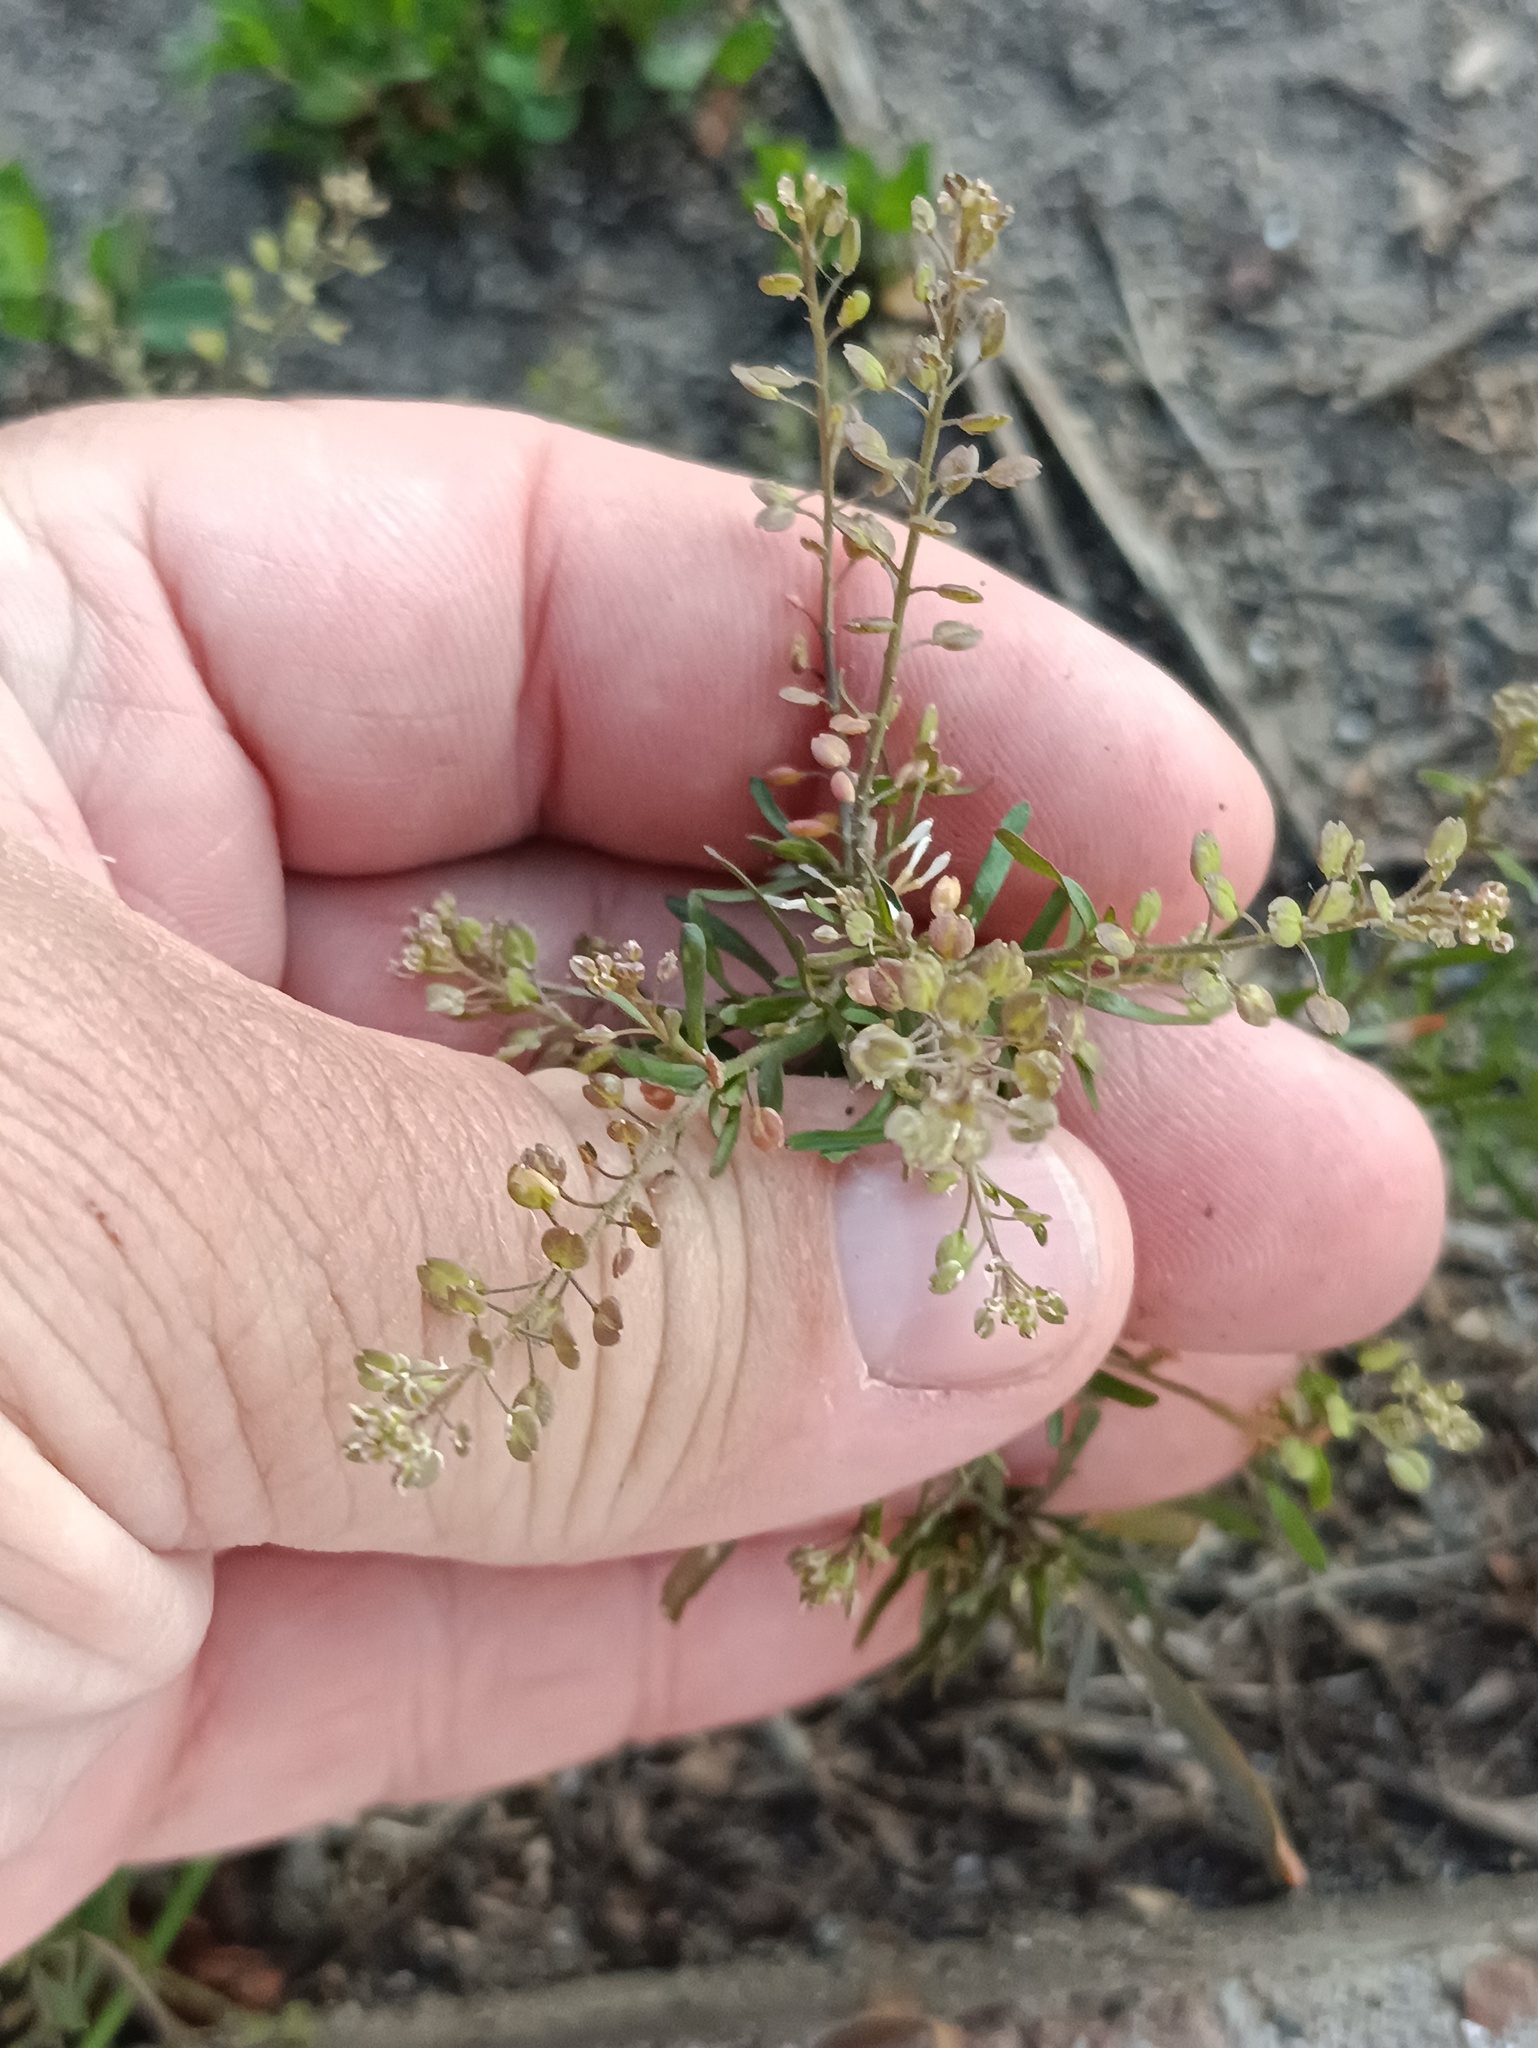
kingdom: Plantae
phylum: Tracheophyta
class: Magnoliopsida
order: Brassicales
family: Brassicaceae
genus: Lepidium
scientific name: Lepidium ruderale
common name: Narrow-leaved pepperwort
